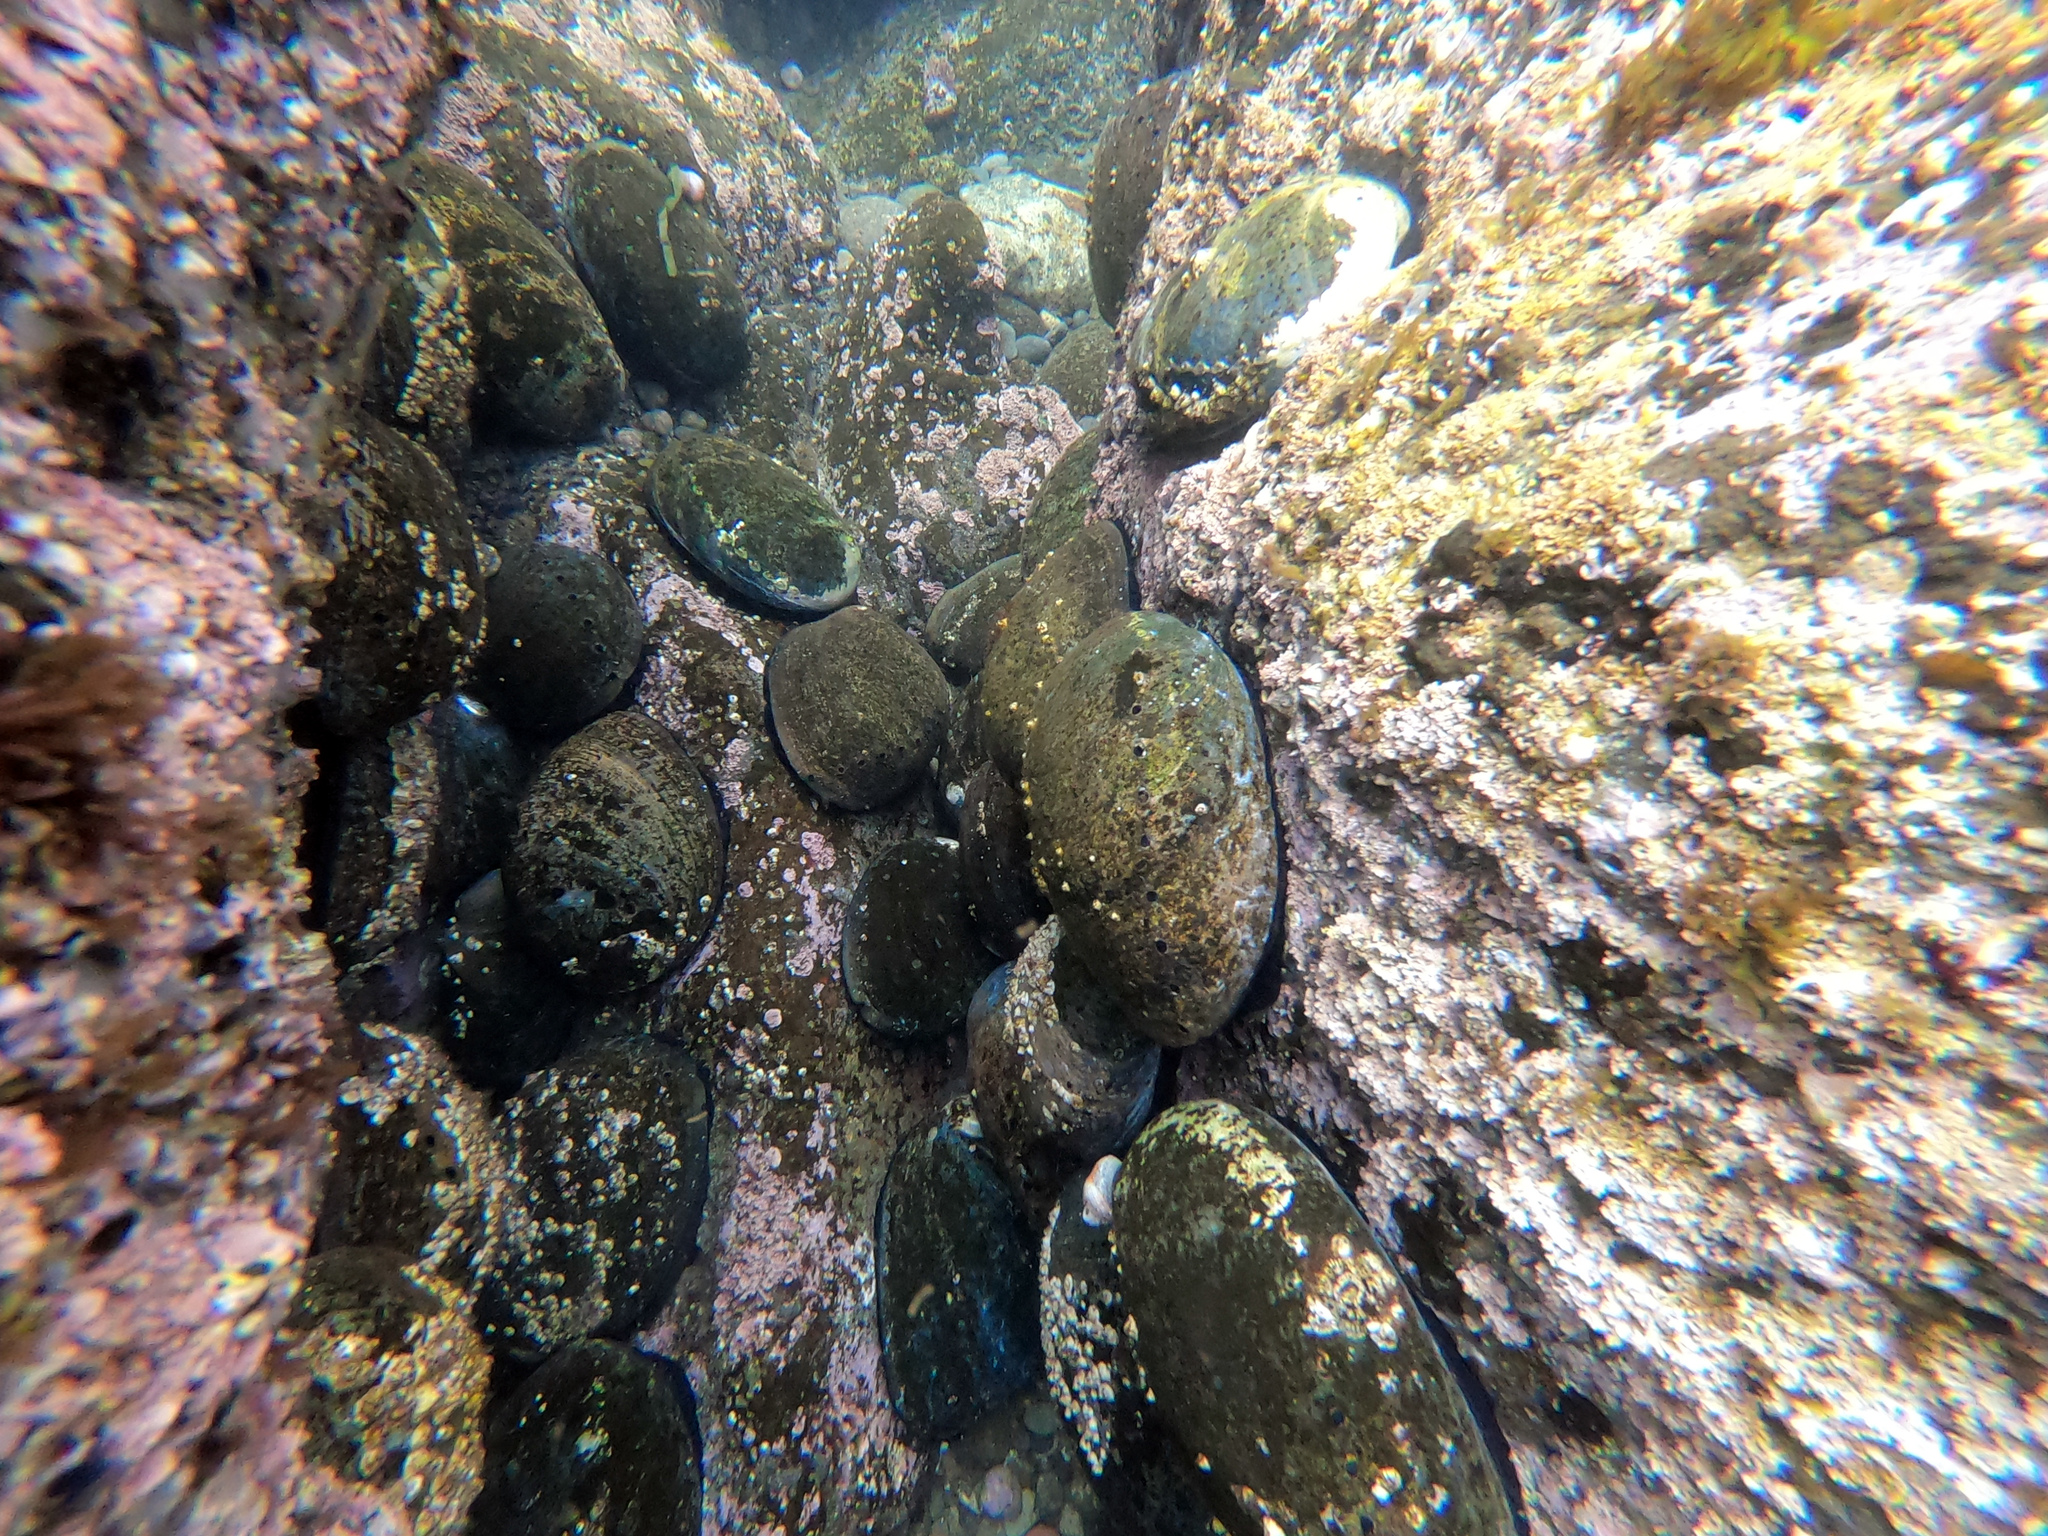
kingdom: Animalia
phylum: Mollusca
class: Gastropoda
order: Lepetellida
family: Haliotidae
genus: Haliotis
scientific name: Haliotis cracherodii
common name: Black abalone
